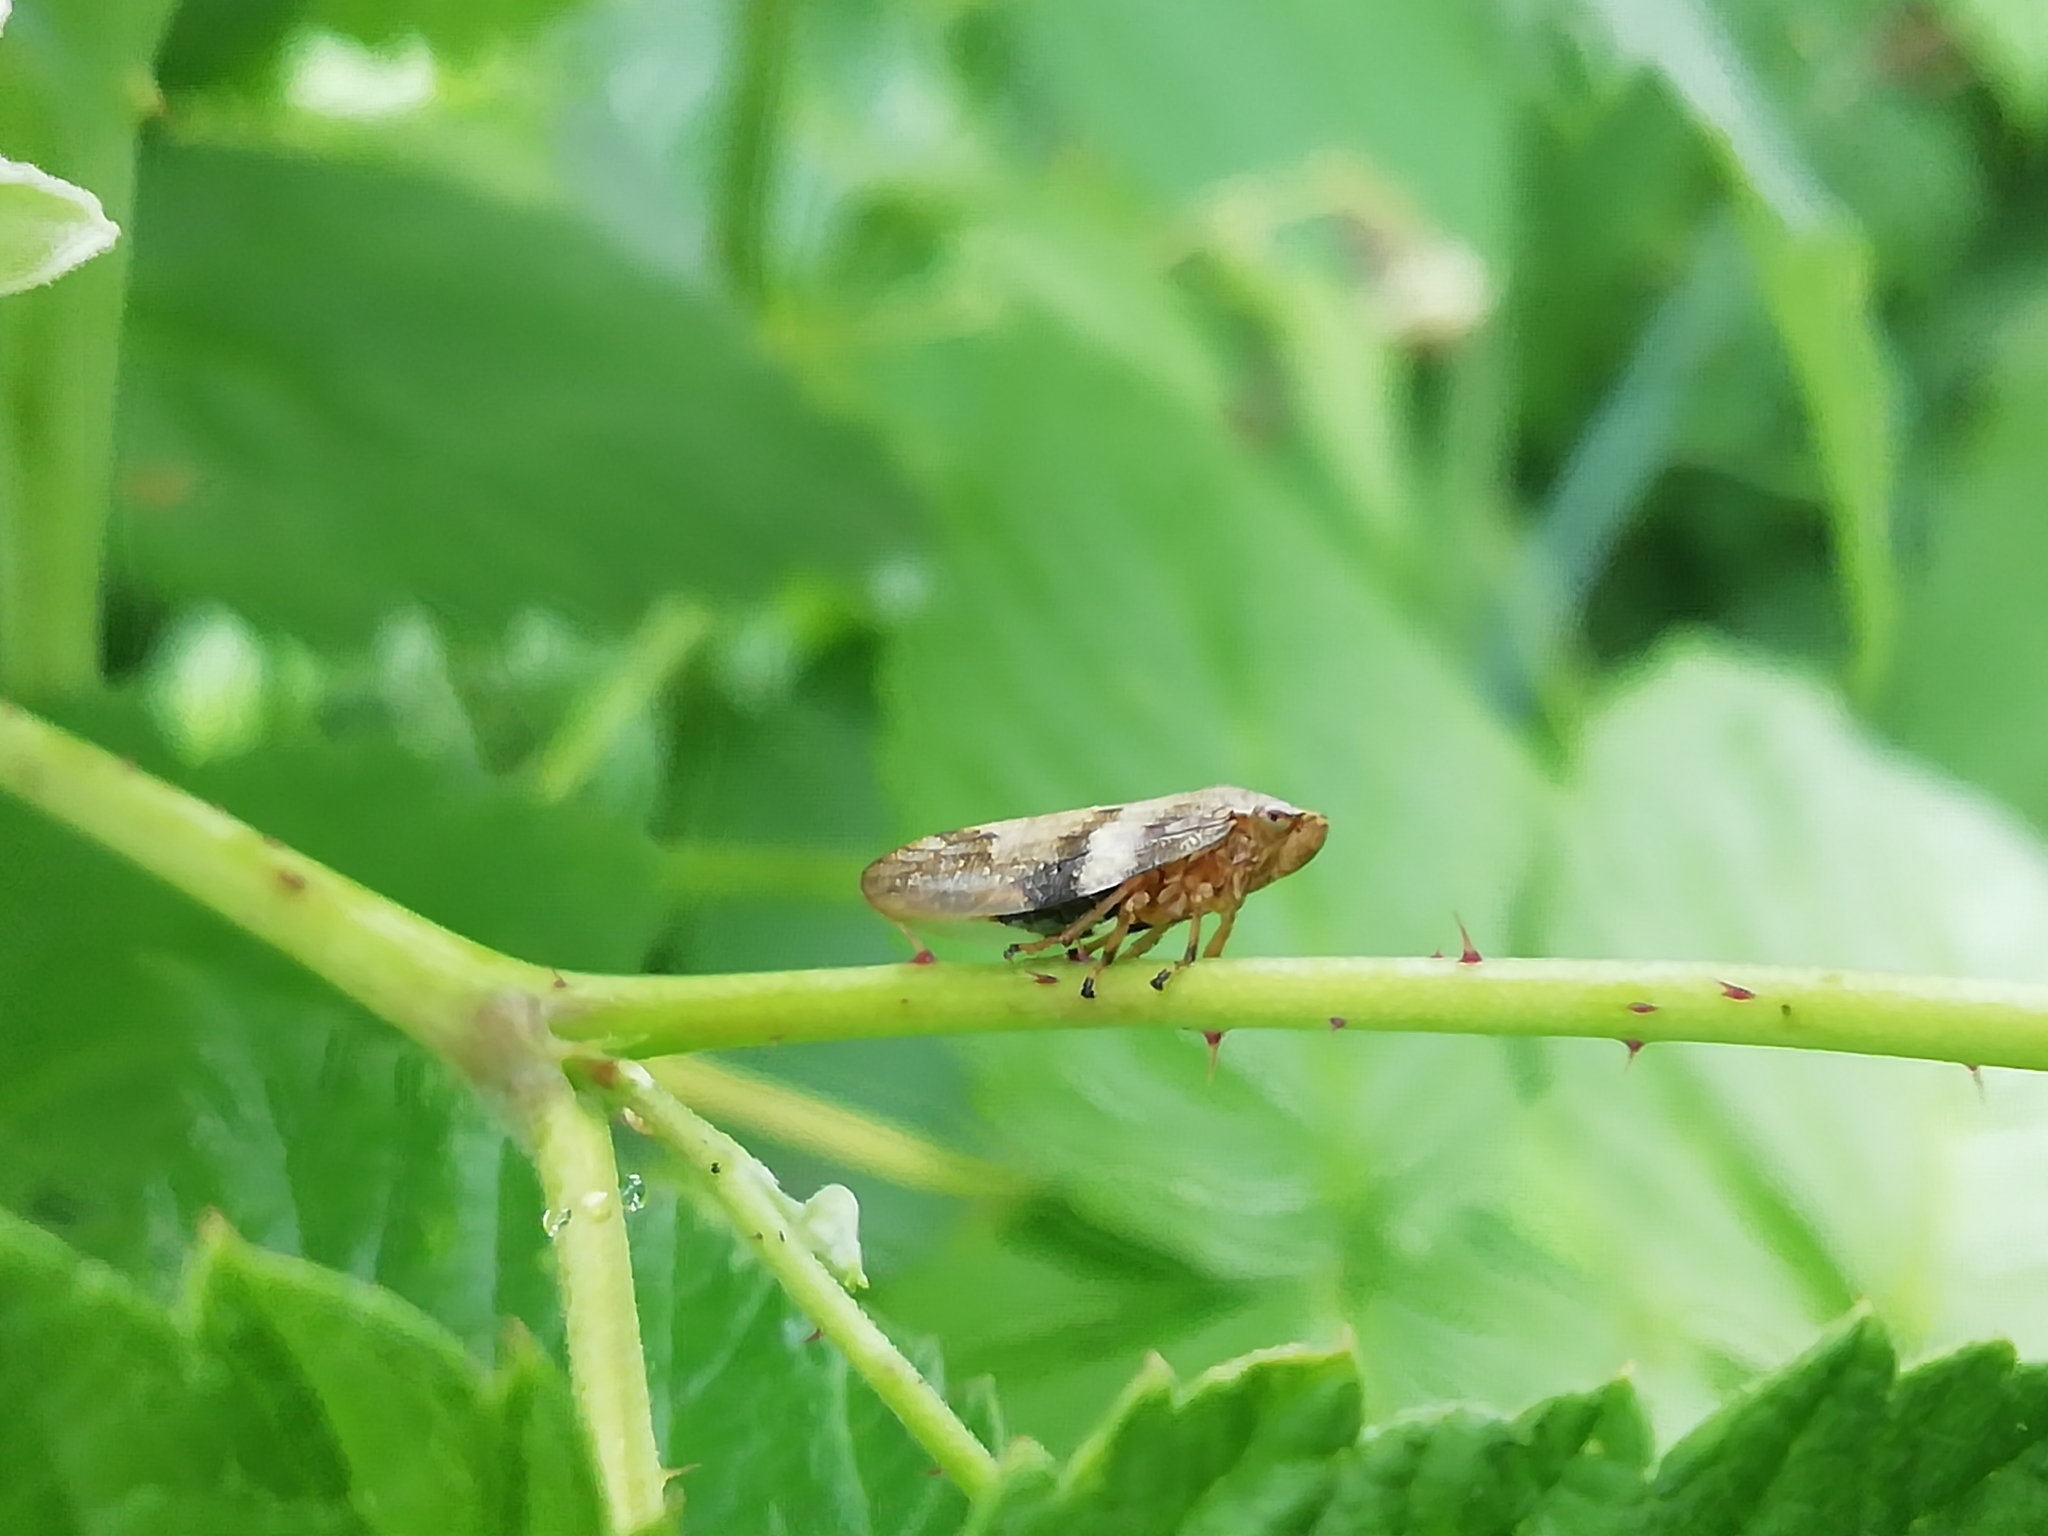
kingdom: Animalia
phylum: Arthropoda
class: Insecta
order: Hemiptera
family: Aphrophoridae
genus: Aphrophora
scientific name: Aphrophora alni
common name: European alder spittlebug
